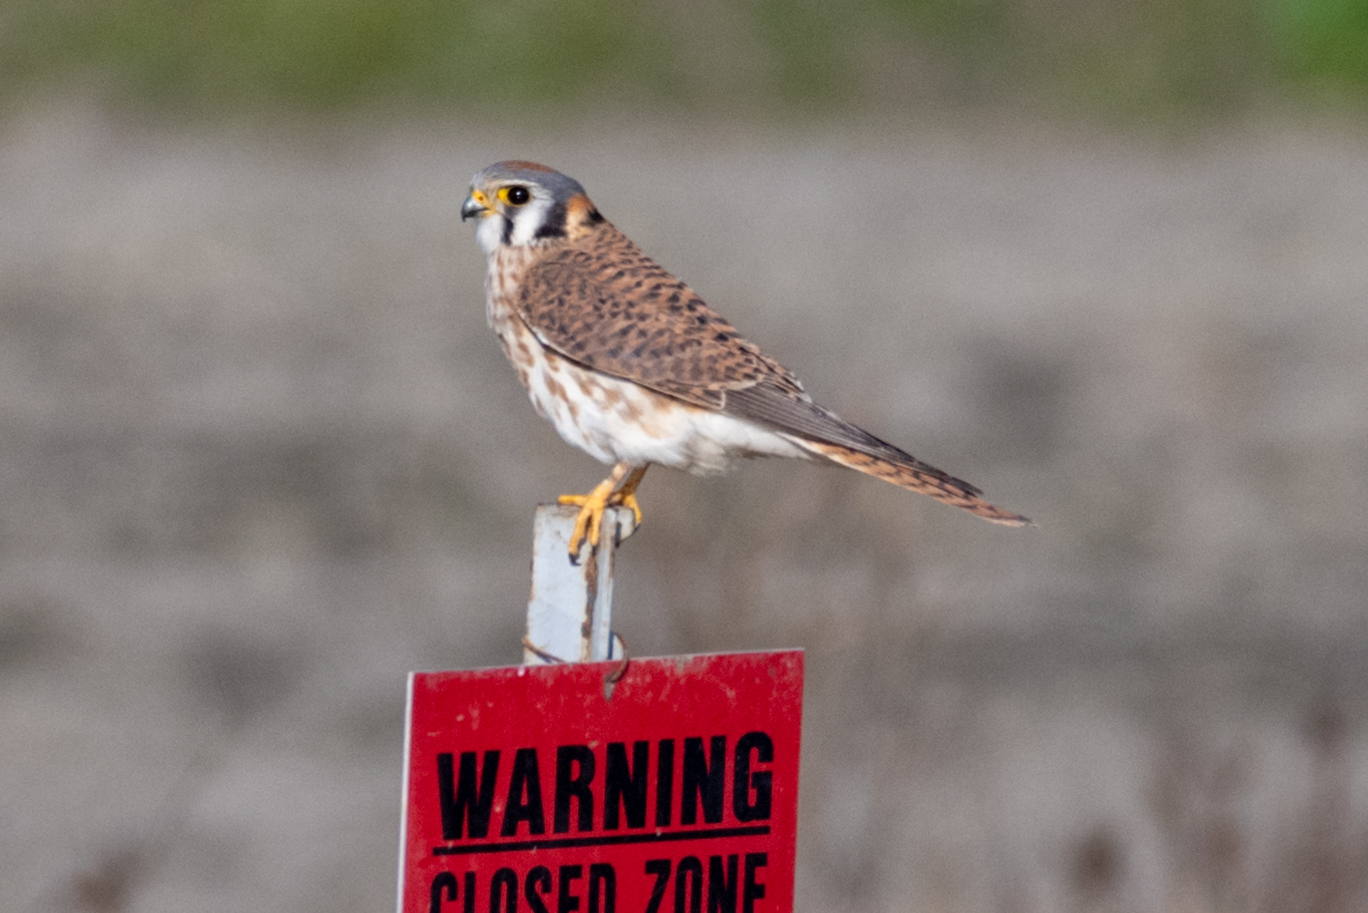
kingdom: Animalia
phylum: Chordata
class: Aves
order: Falconiformes
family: Falconidae
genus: Falco
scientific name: Falco sparverius
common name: American kestrel
